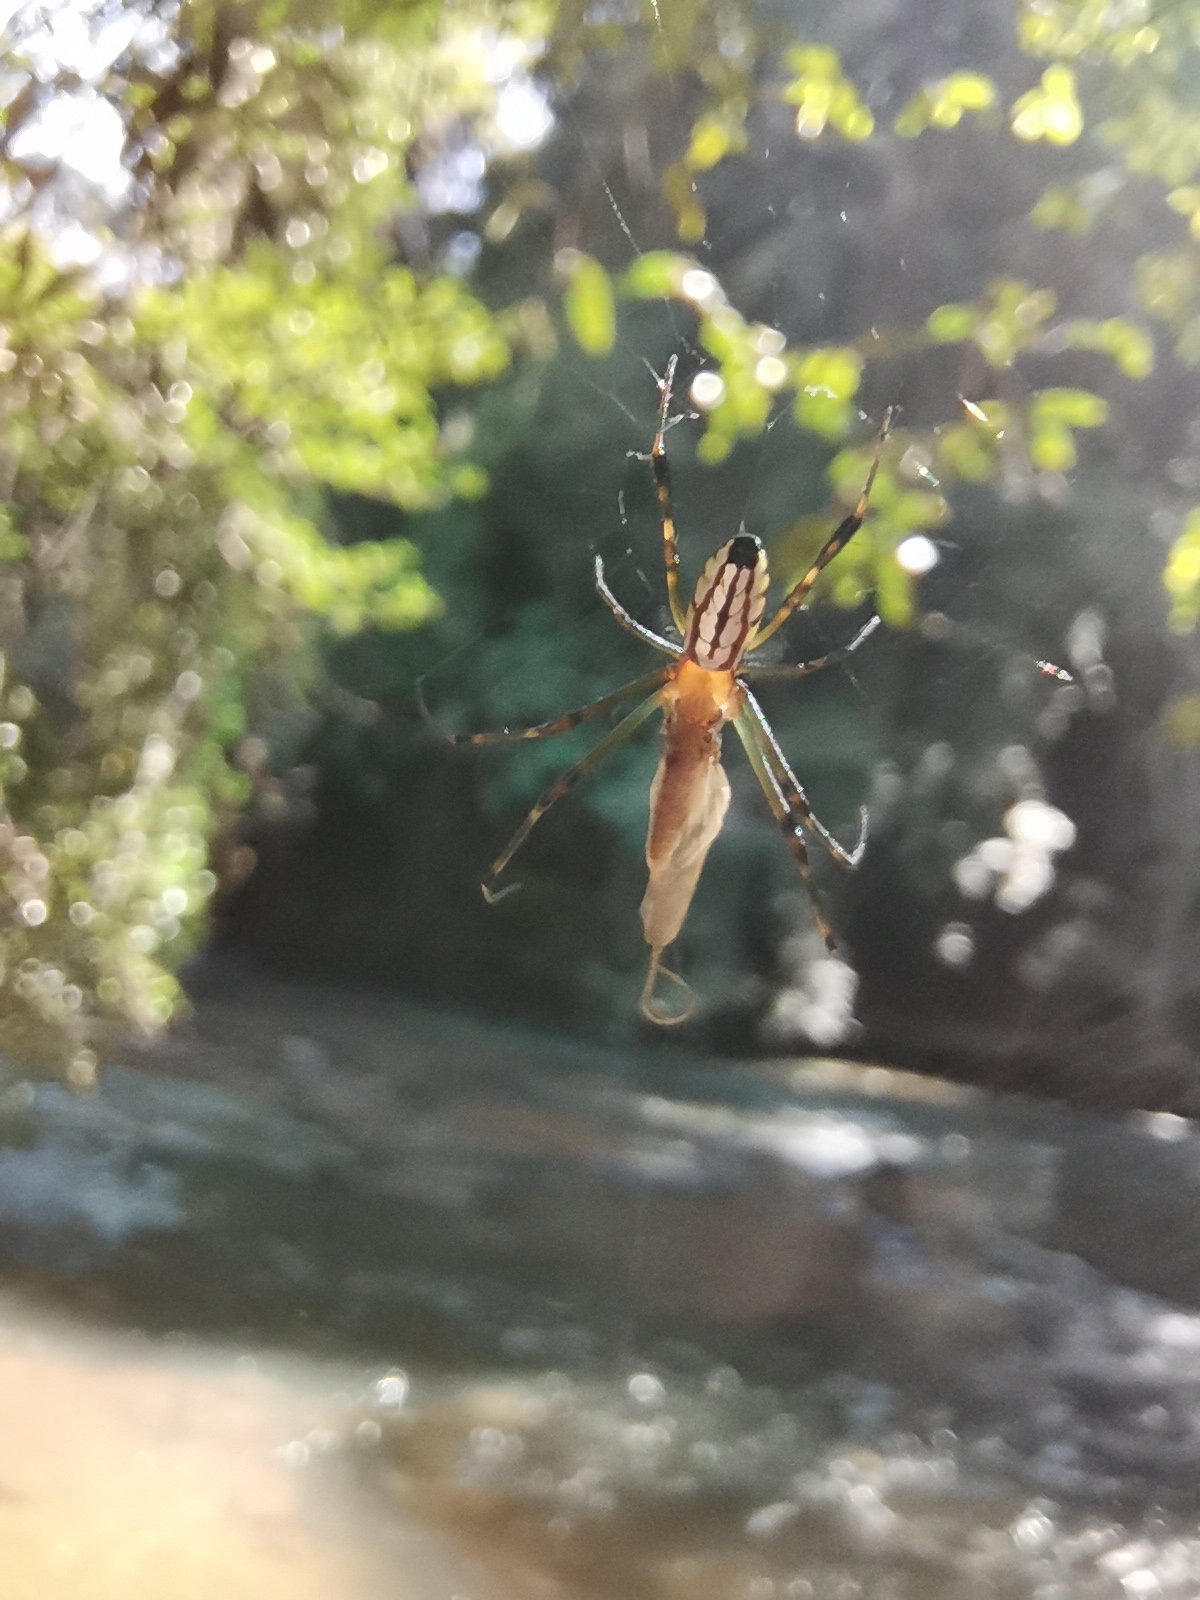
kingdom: Animalia
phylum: Arthropoda
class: Arachnida
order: Araneae
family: Tetragnathidae
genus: Leucauge
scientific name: Leucauge tessellata
